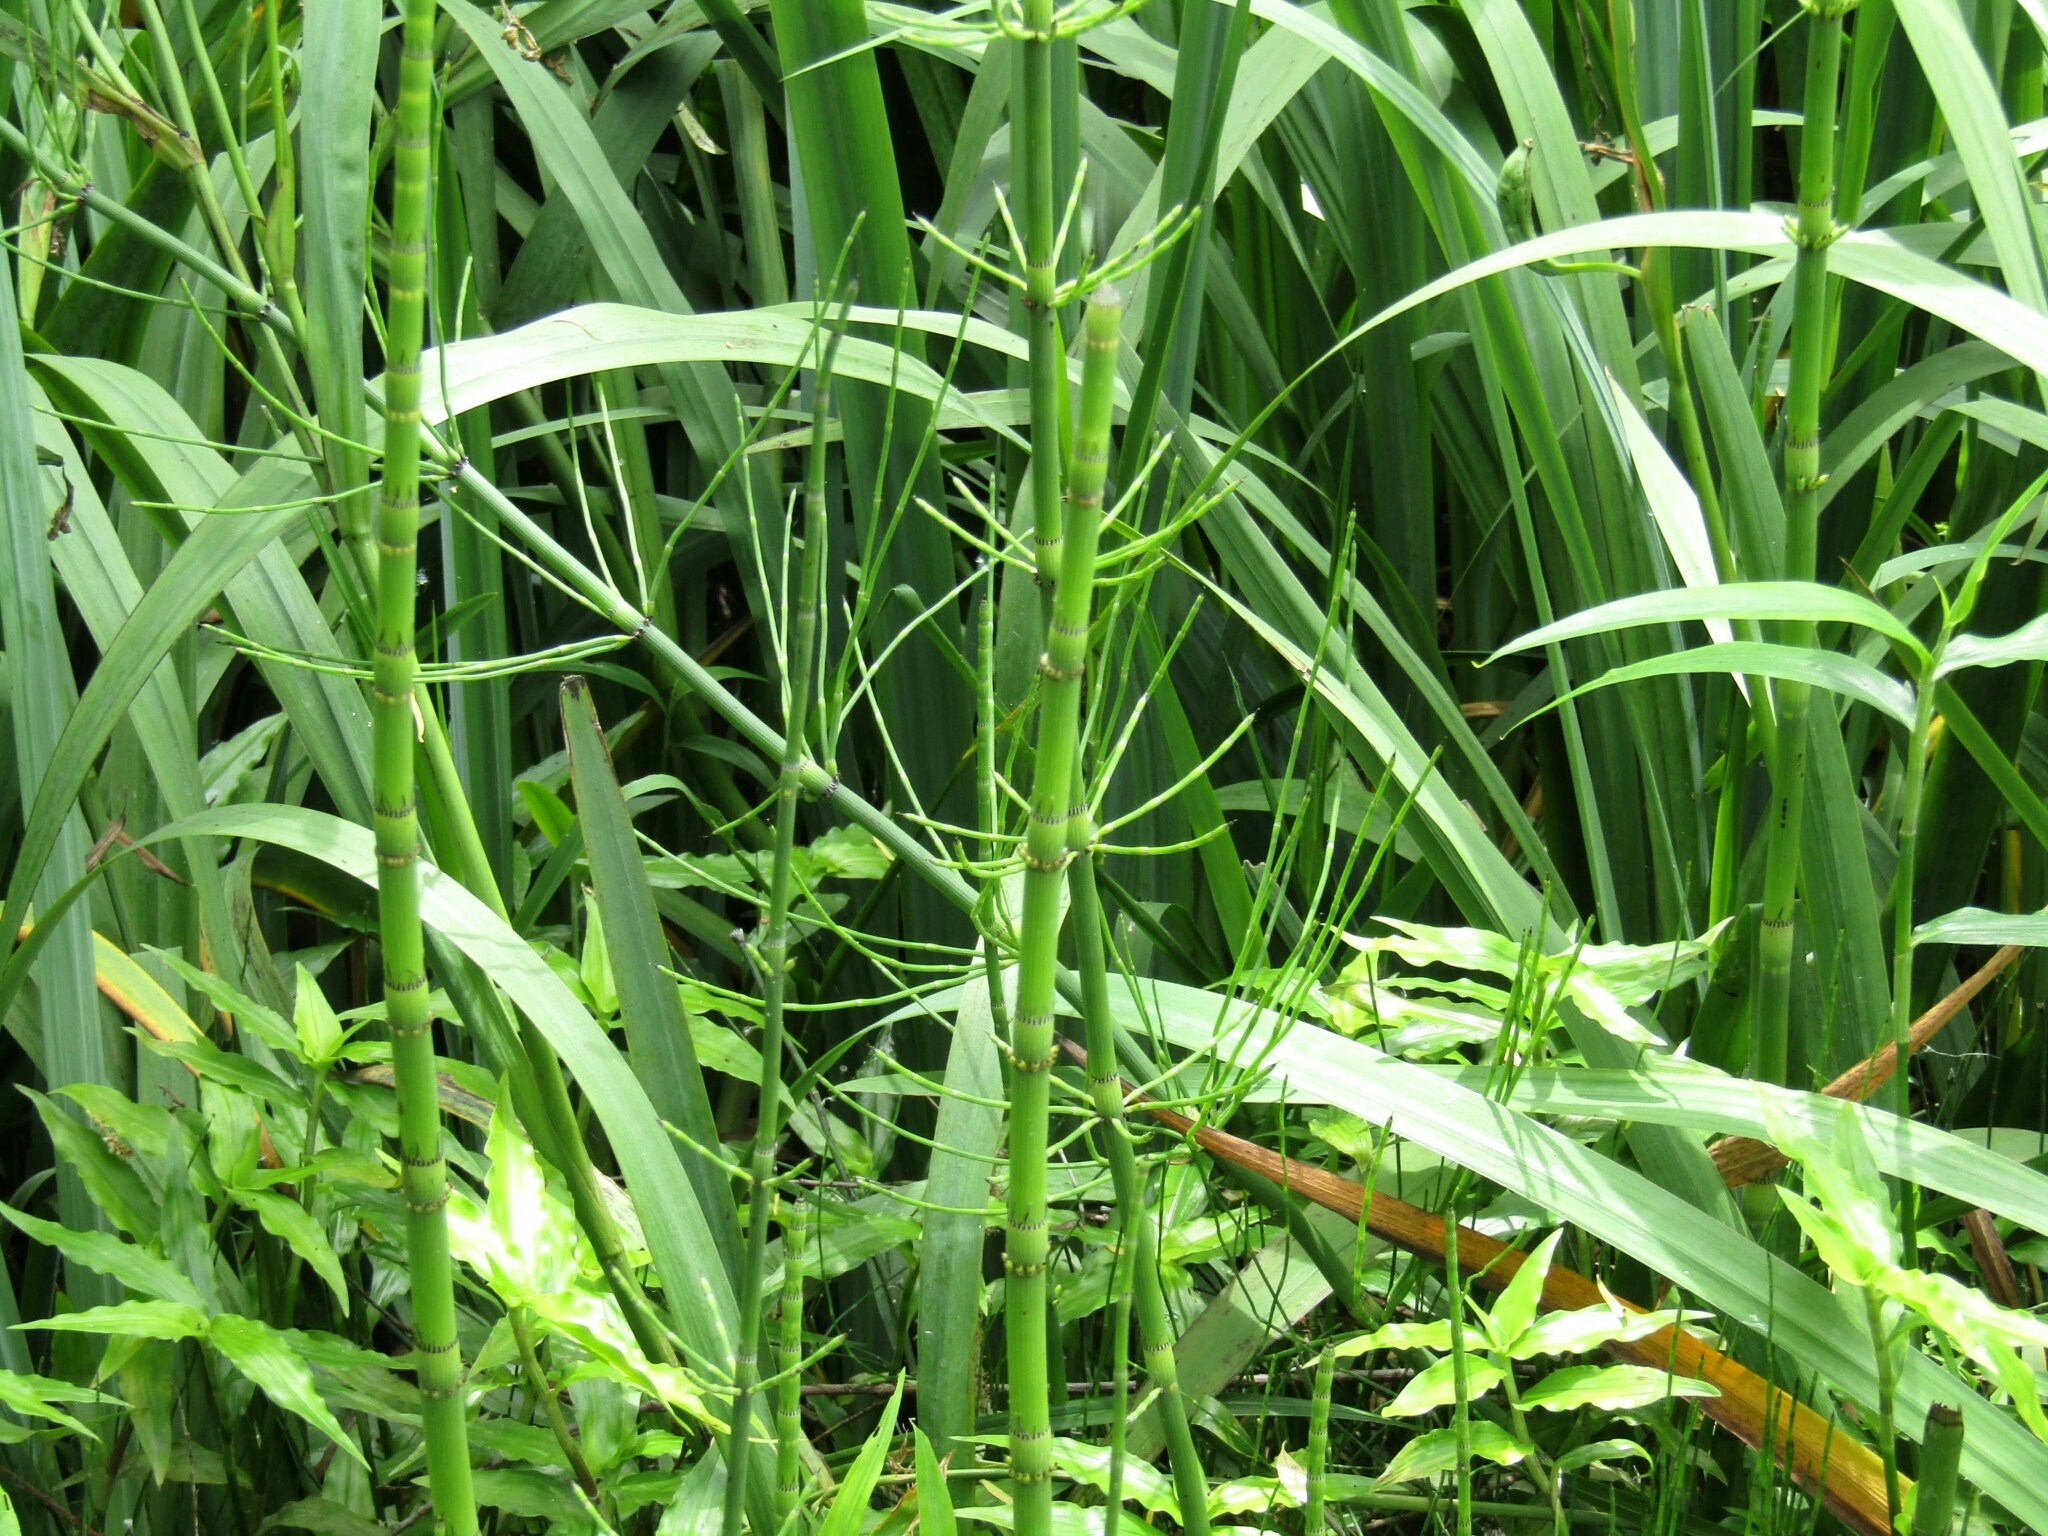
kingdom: Plantae
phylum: Tracheophyta
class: Polypodiopsida
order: Equisetales
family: Equisetaceae
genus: Equisetum
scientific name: Equisetum giganteum
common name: Giant horsetail
